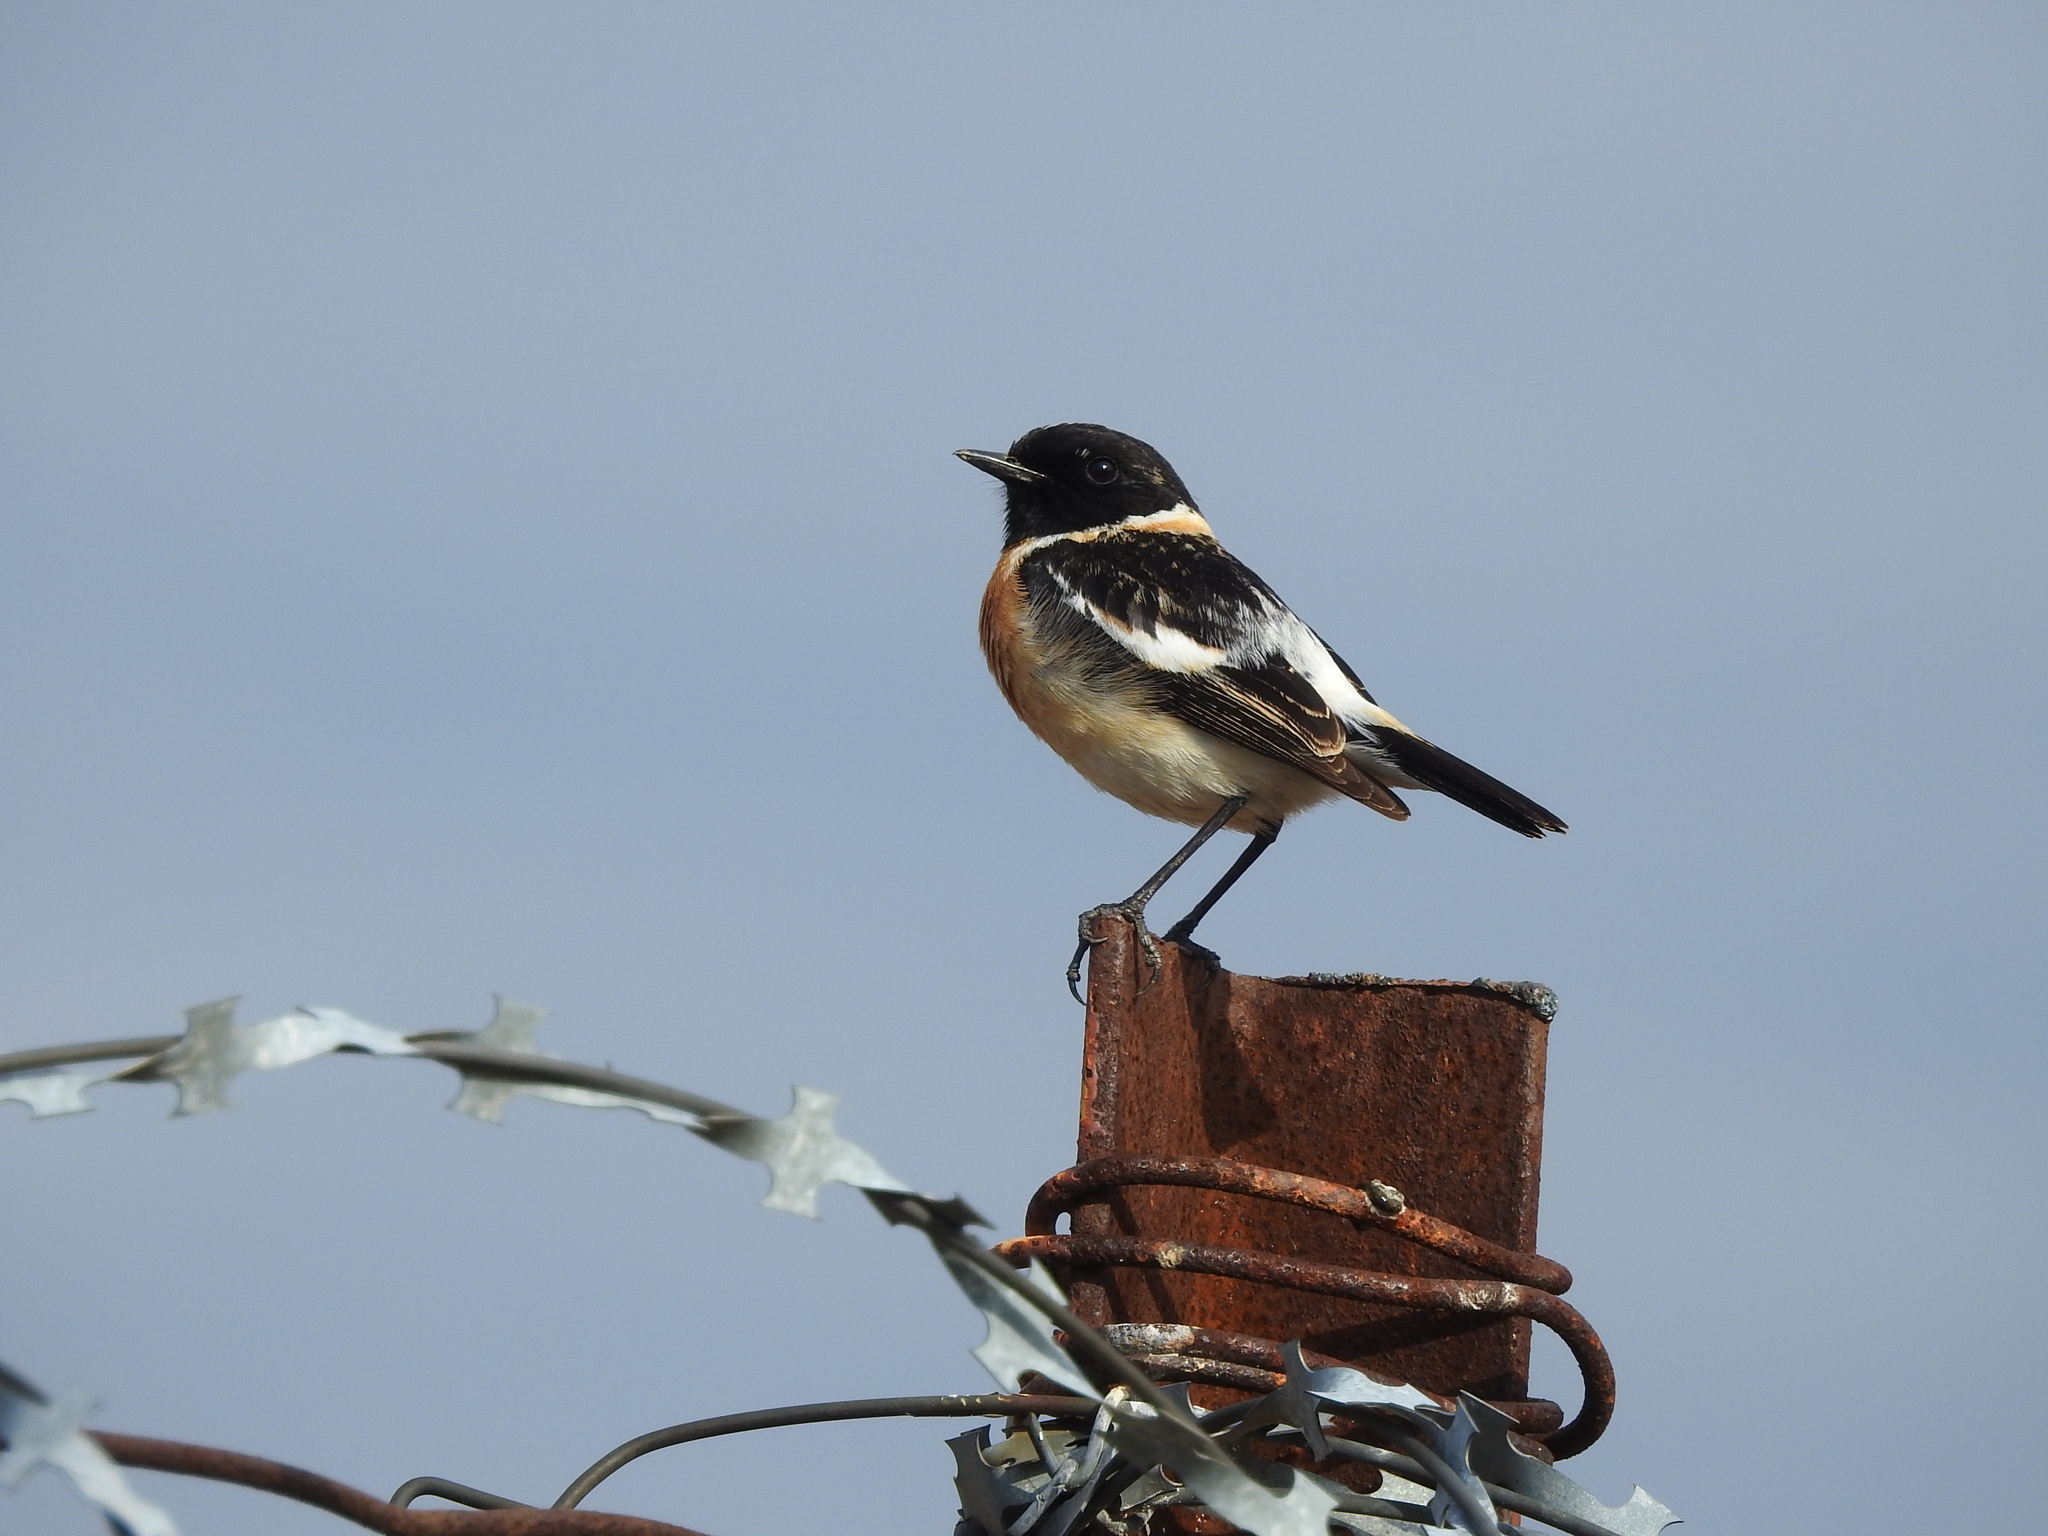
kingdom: Animalia
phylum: Chordata
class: Aves
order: Passeriformes
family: Muscicapidae
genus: Saxicola
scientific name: Saxicola maurus
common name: Siberian stonechat
